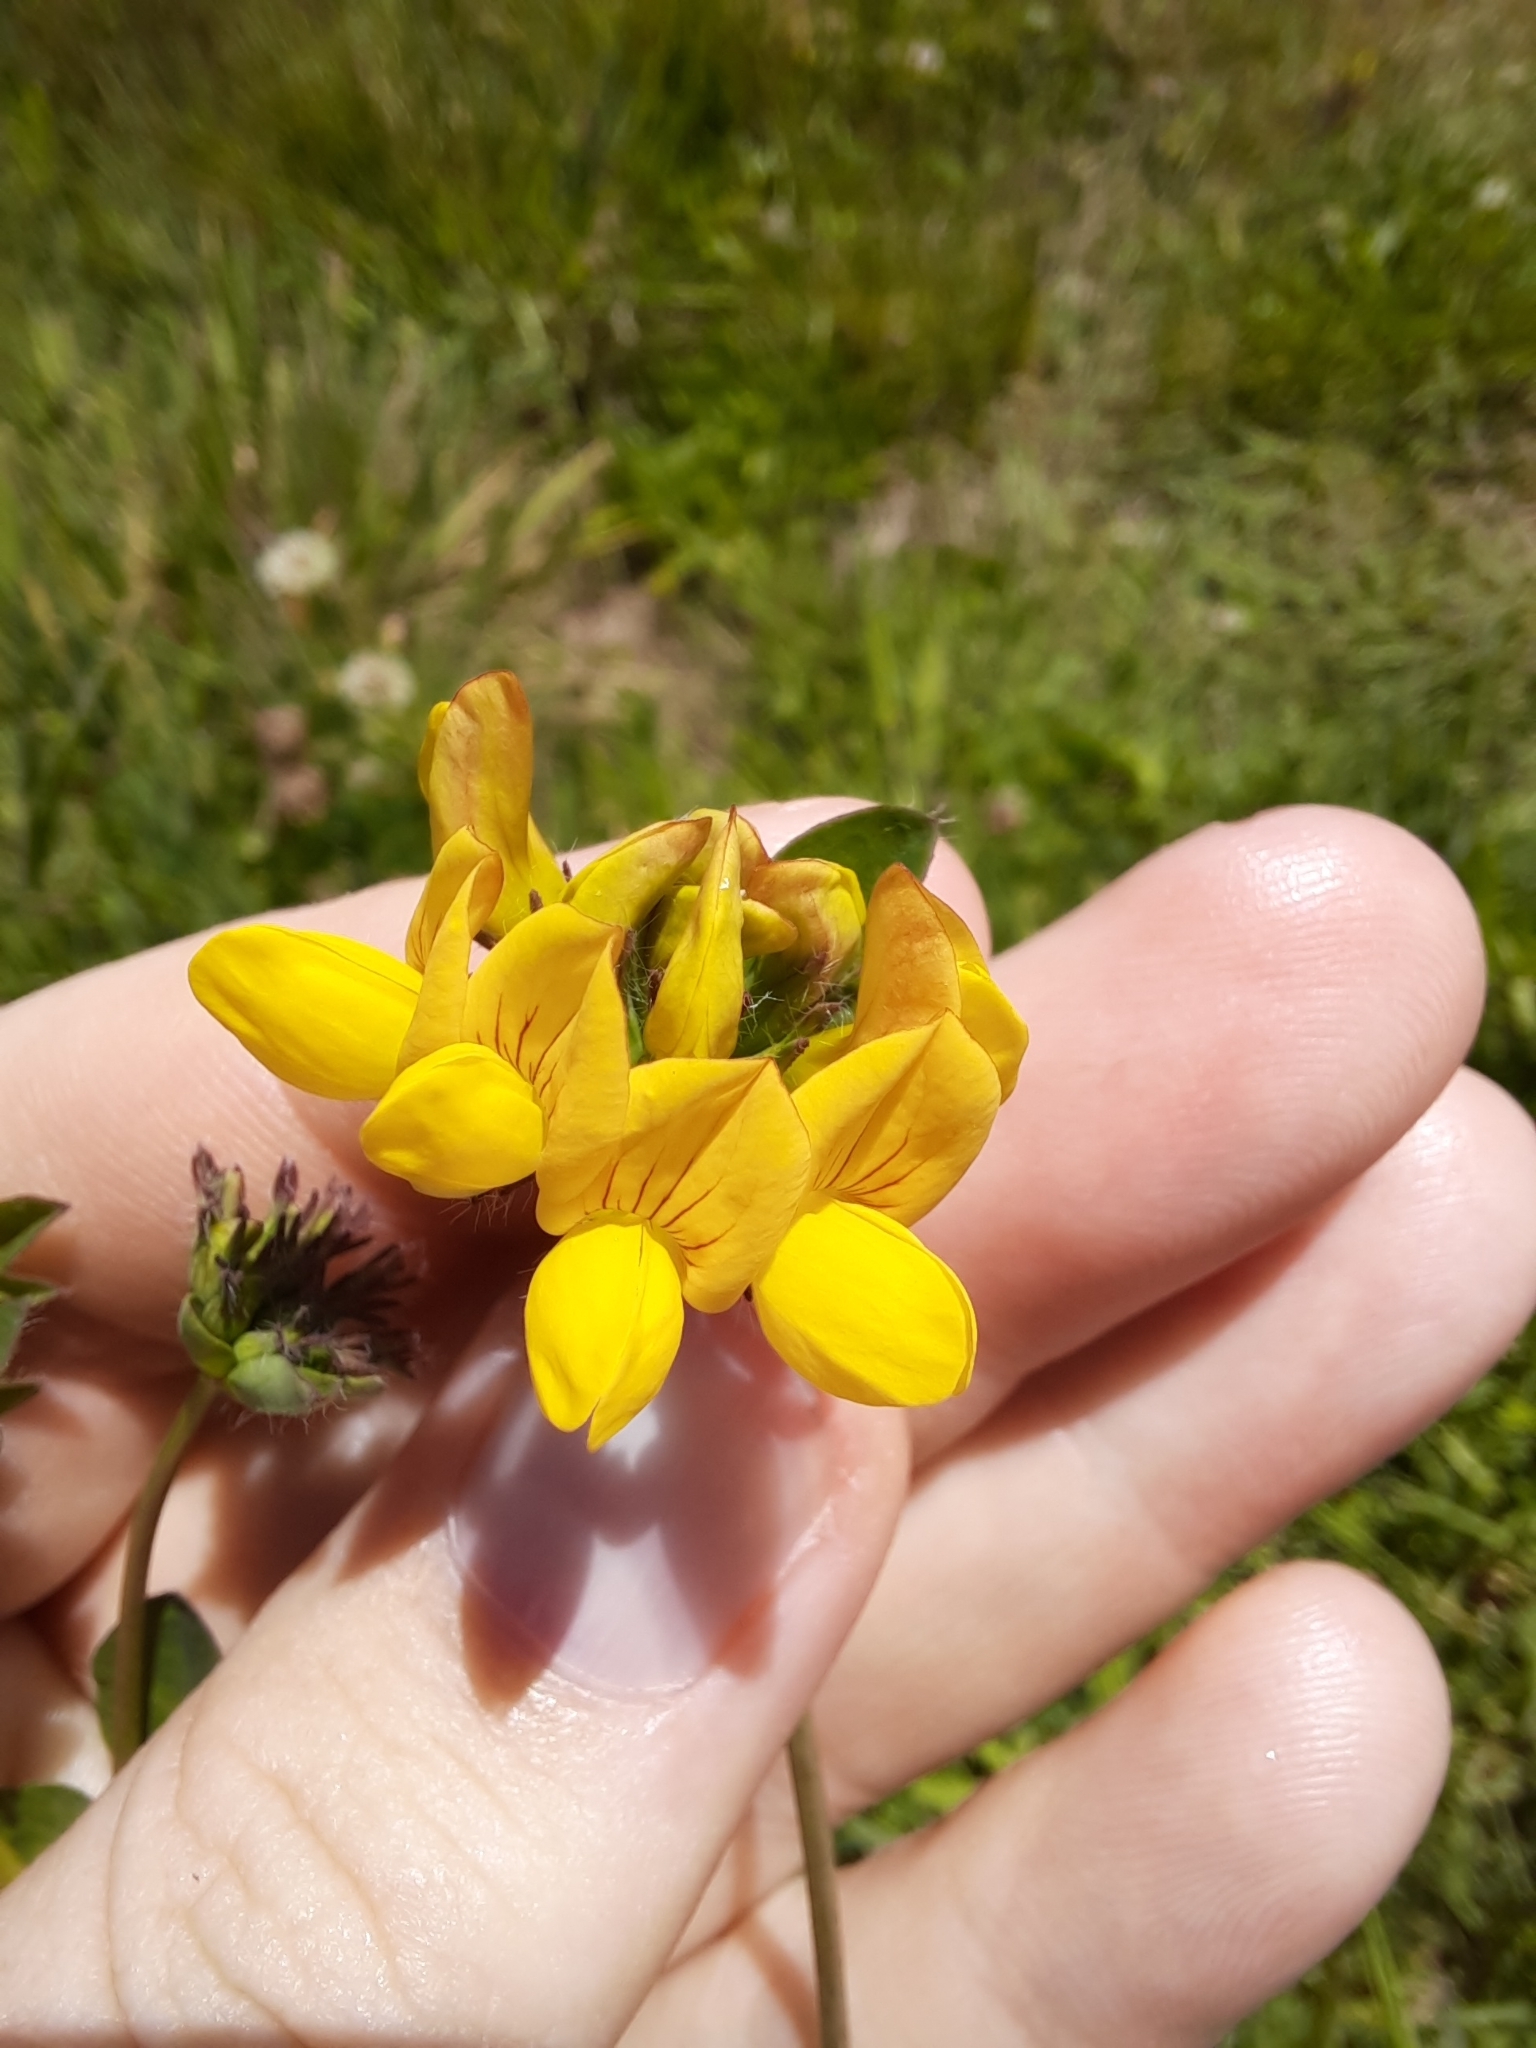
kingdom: Plantae
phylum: Tracheophyta
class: Magnoliopsida
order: Fabales
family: Fabaceae
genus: Lotus
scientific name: Lotus pedunculatus
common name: Greater birdsfoot-trefoil
